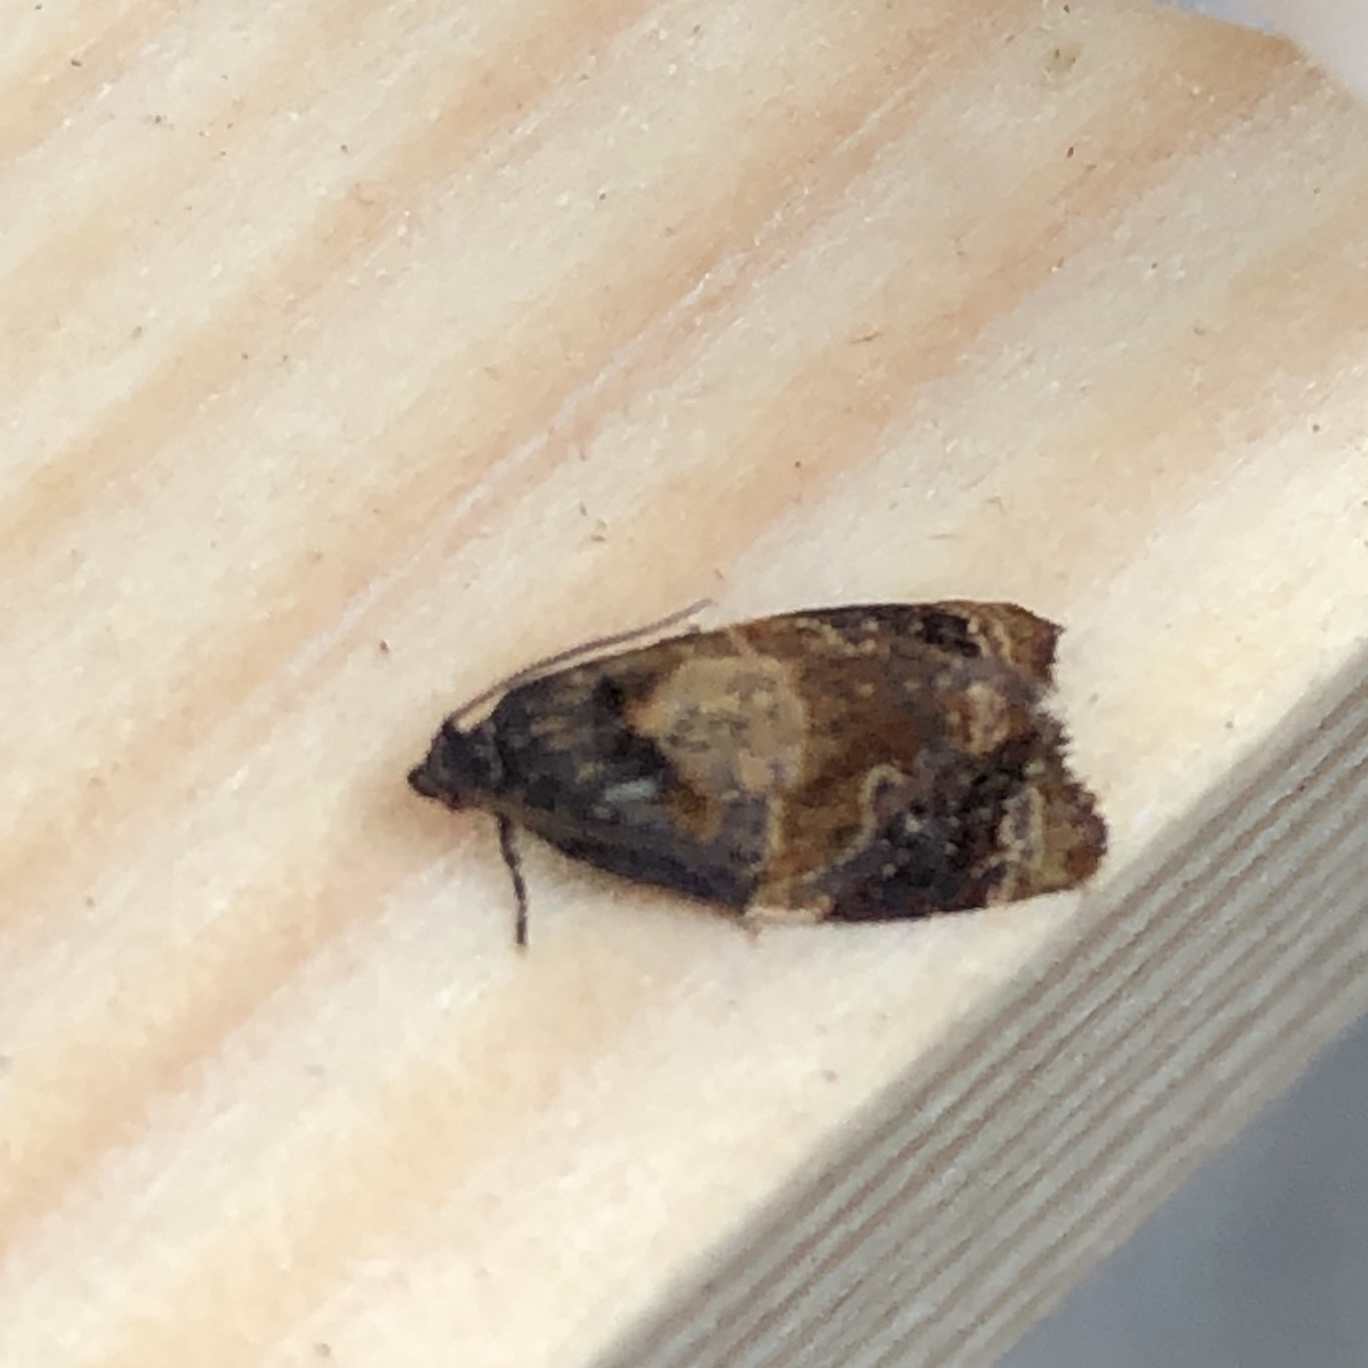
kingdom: Animalia
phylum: Arthropoda
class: Insecta
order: Lepidoptera
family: Tortricidae
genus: Ditula
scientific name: Ditula angustiorana
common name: Red-barred tortrix
